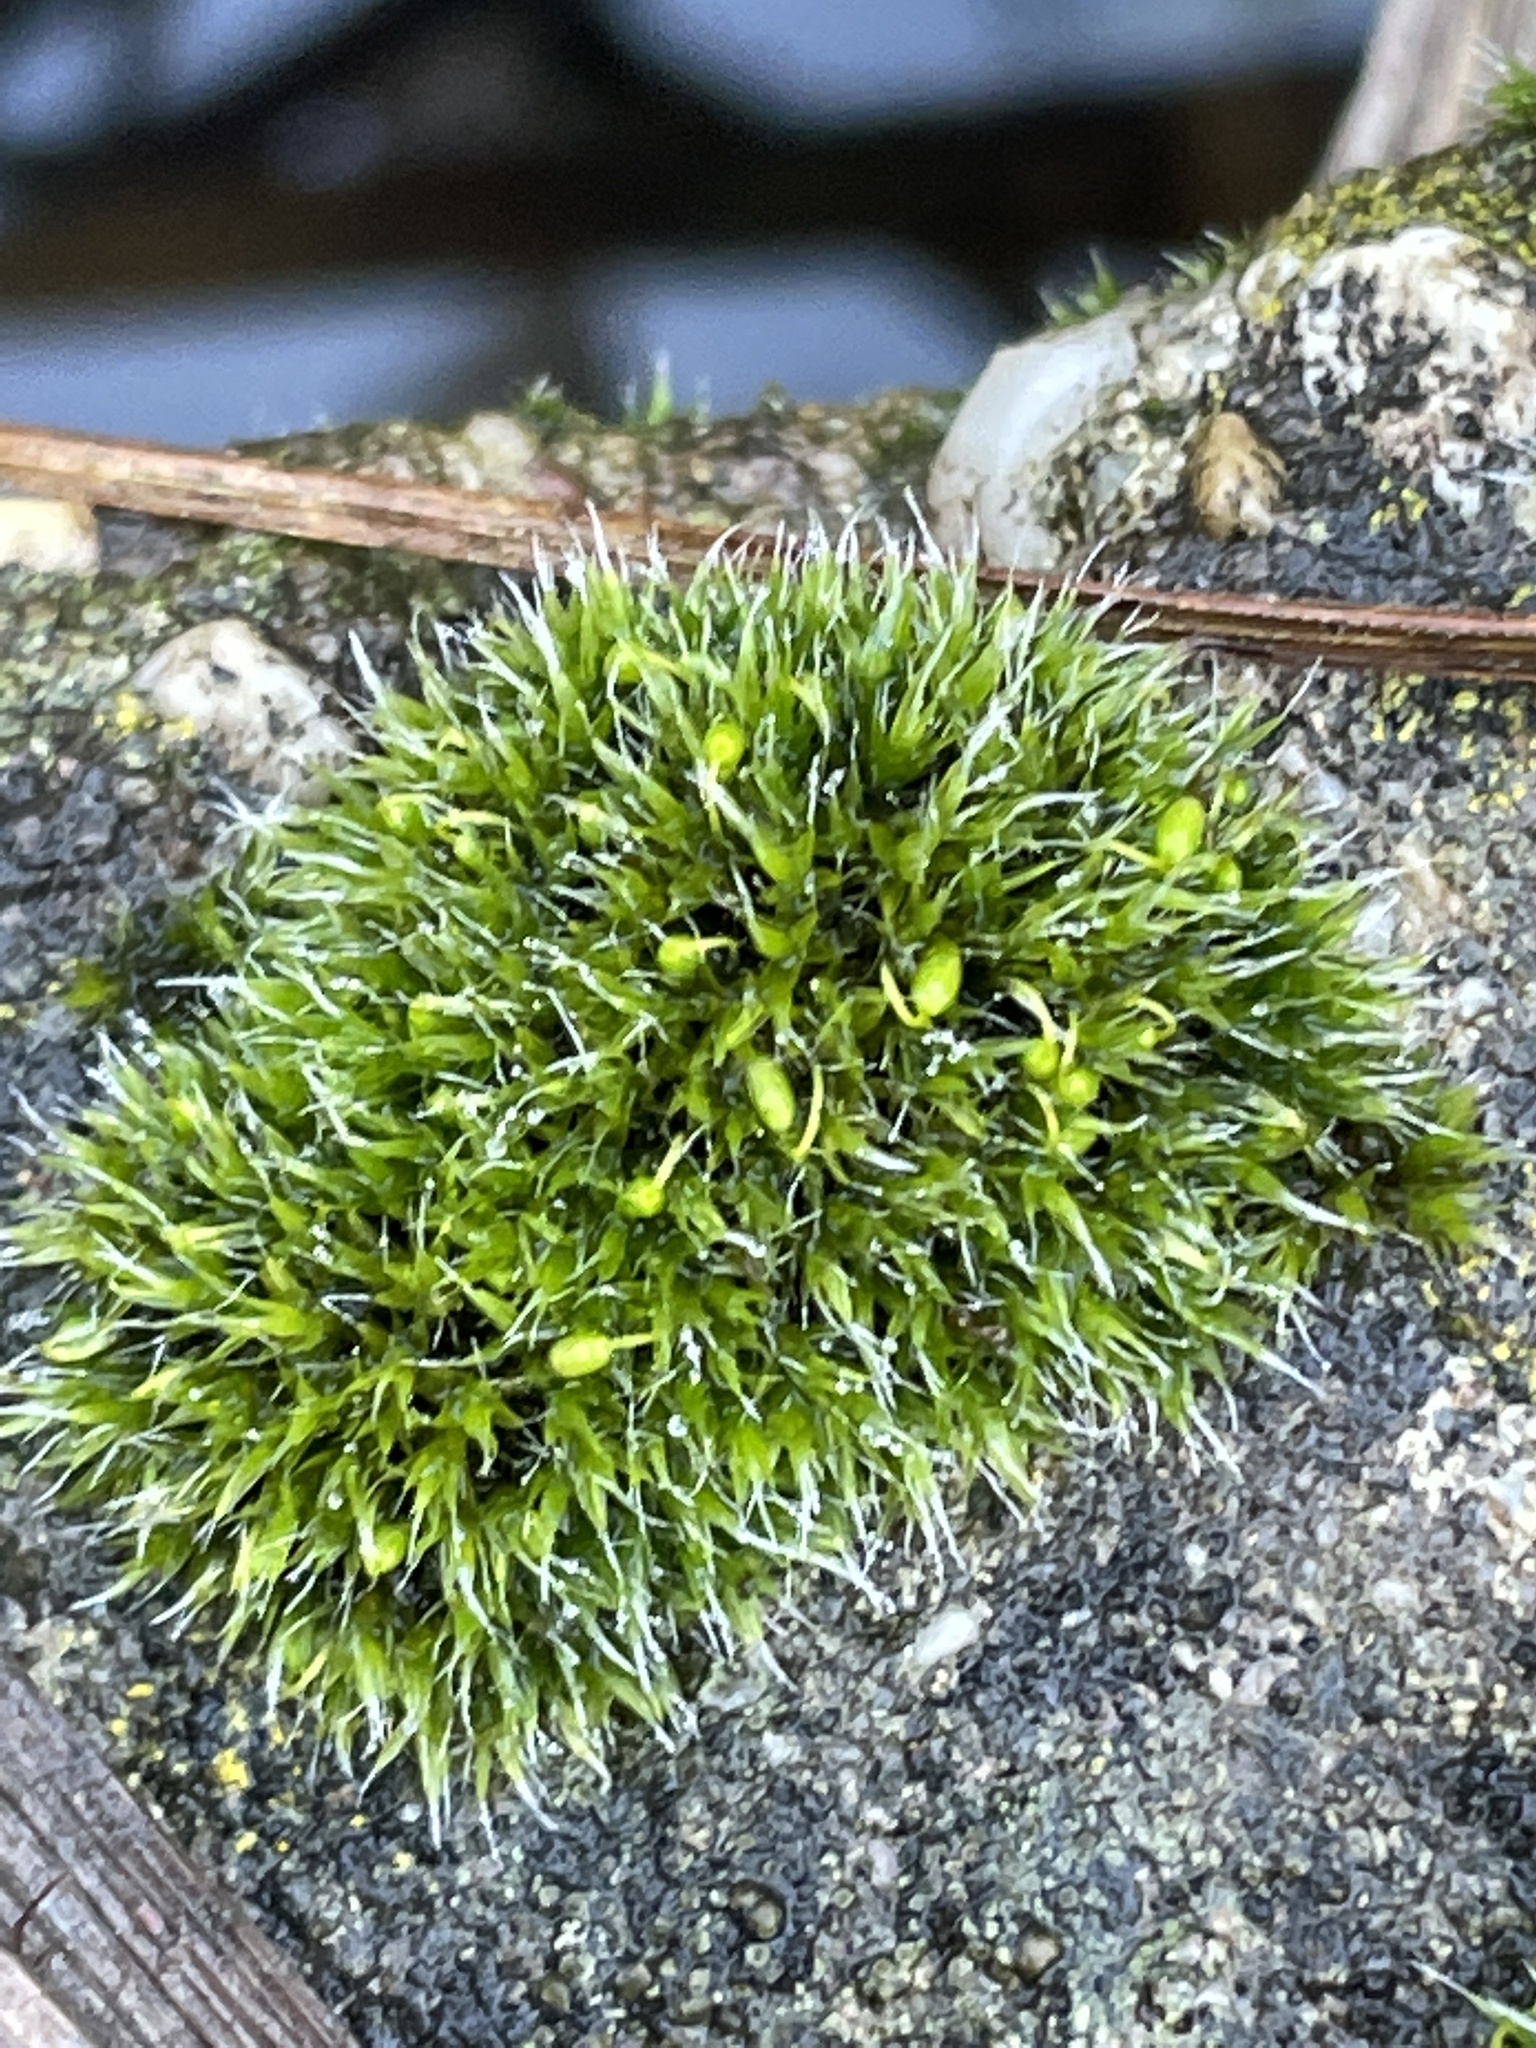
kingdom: Plantae
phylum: Bryophyta
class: Bryopsida
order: Grimmiales
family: Grimmiaceae
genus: Grimmia
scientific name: Grimmia pulvinata
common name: Grey-cushioned grimmia
